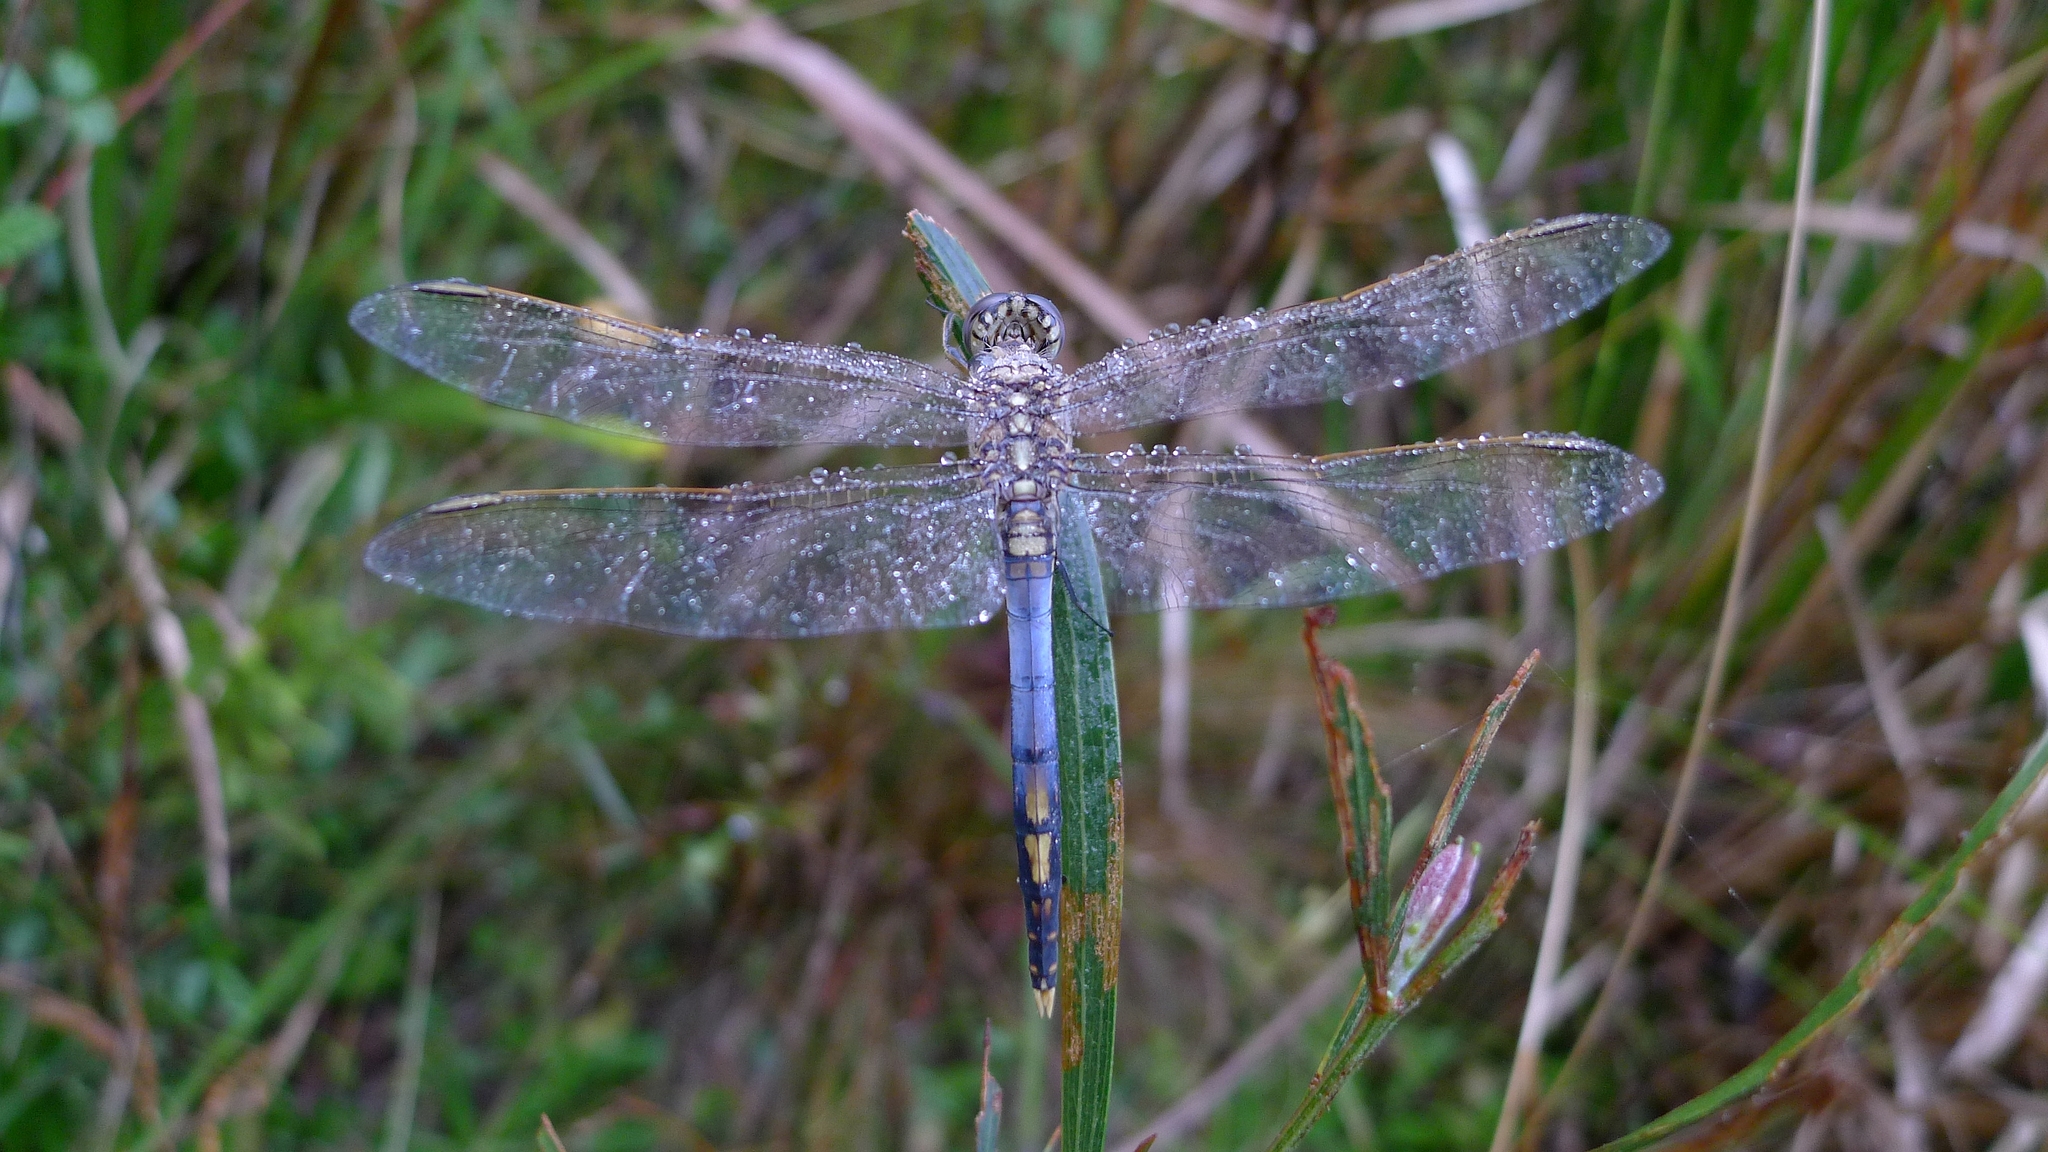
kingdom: Animalia
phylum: Arthropoda
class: Insecta
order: Odonata
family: Libellulidae
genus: Orthetrum
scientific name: Orthetrum caledonicum
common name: Blue skimmer
